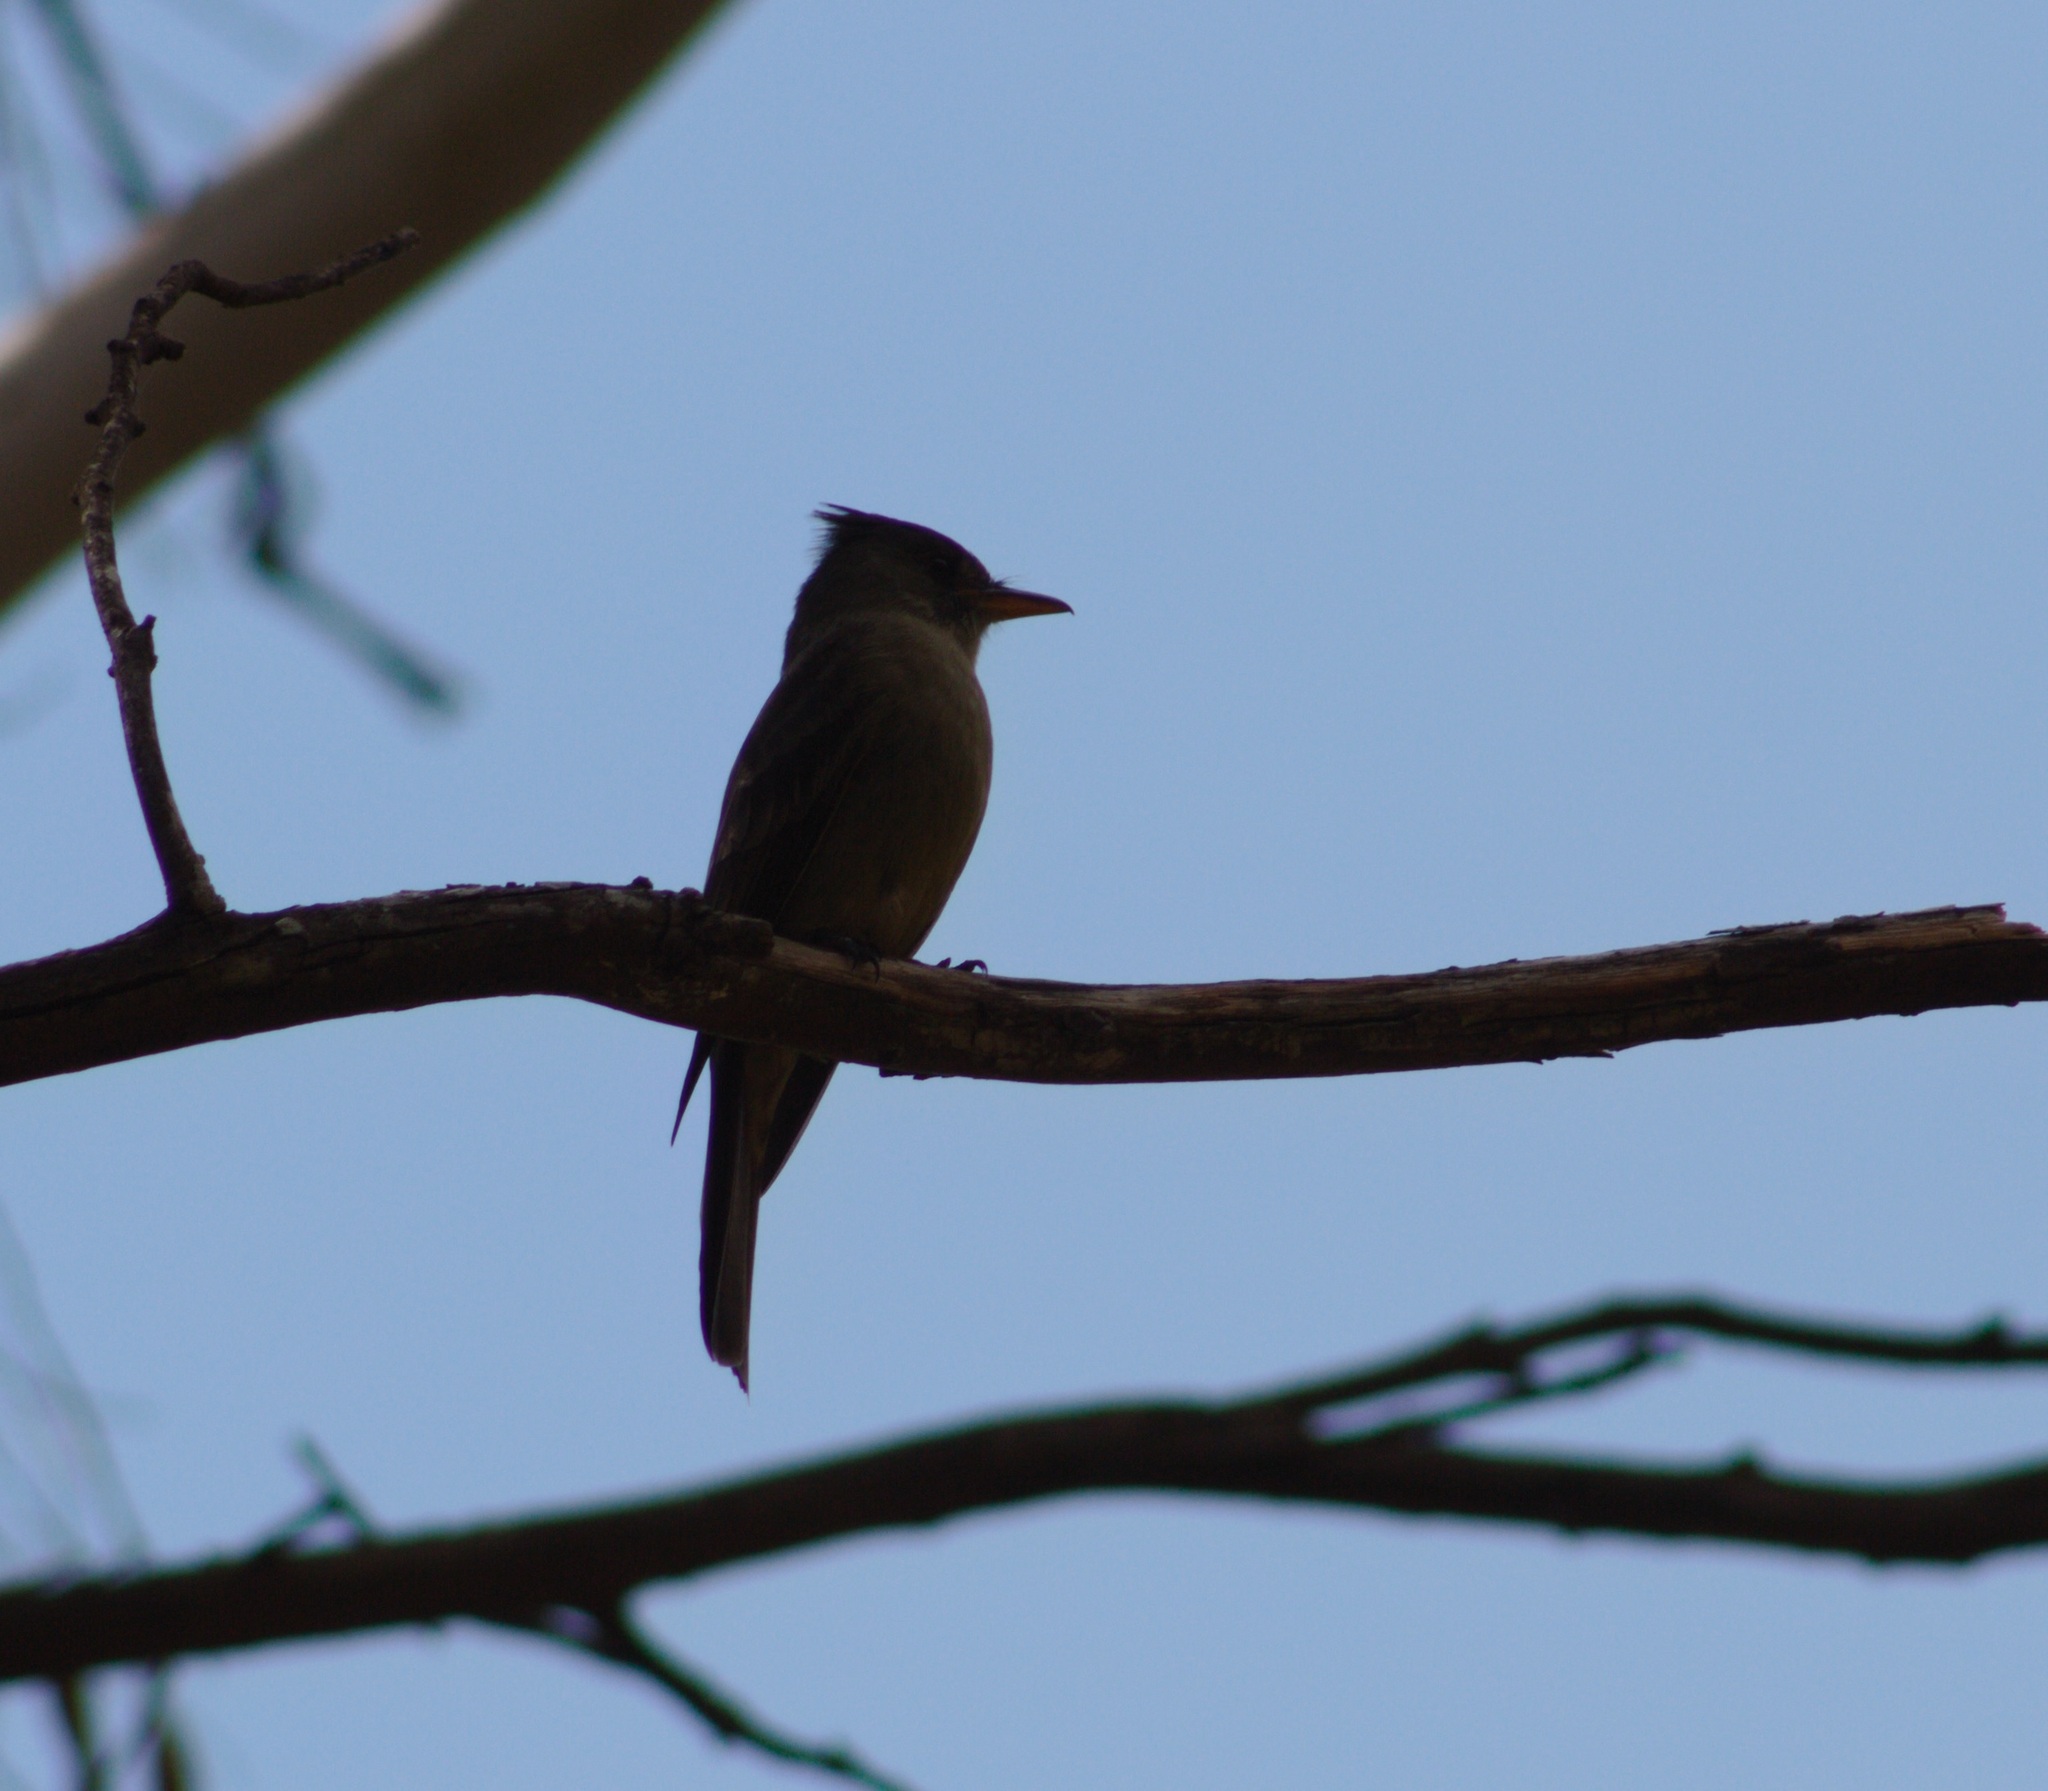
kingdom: Animalia
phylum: Chordata
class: Aves
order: Passeriformes
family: Tyrannidae
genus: Contopus
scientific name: Contopus pertinax
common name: Greater pewee
